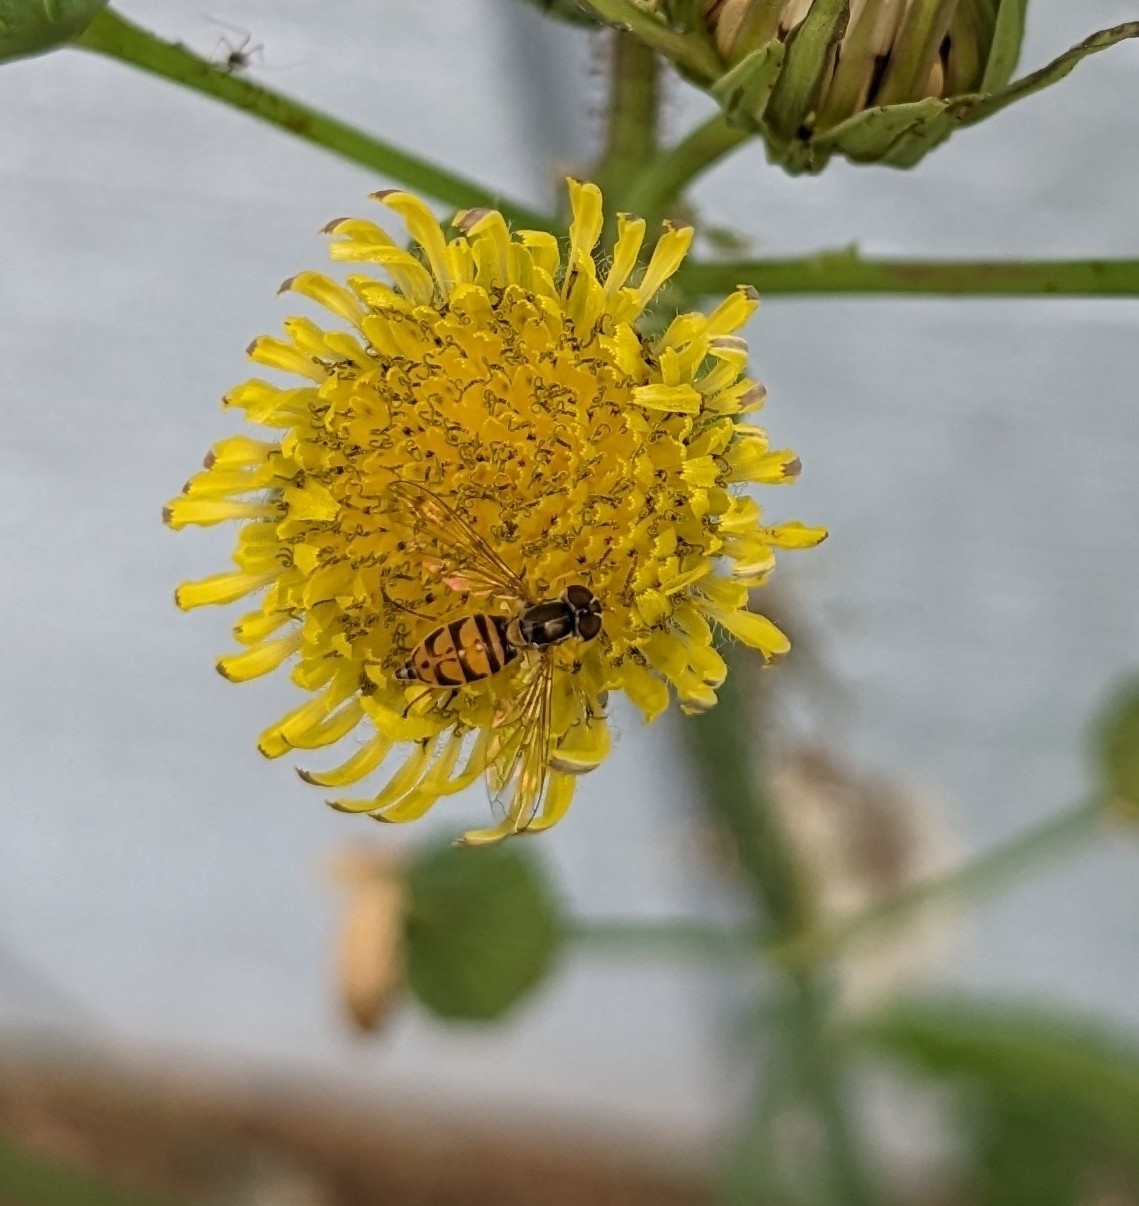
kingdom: Animalia
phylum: Arthropoda
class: Insecta
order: Diptera
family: Syrphidae
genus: Toxomerus
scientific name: Toxomerus marginatus
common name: Syrphid fly
